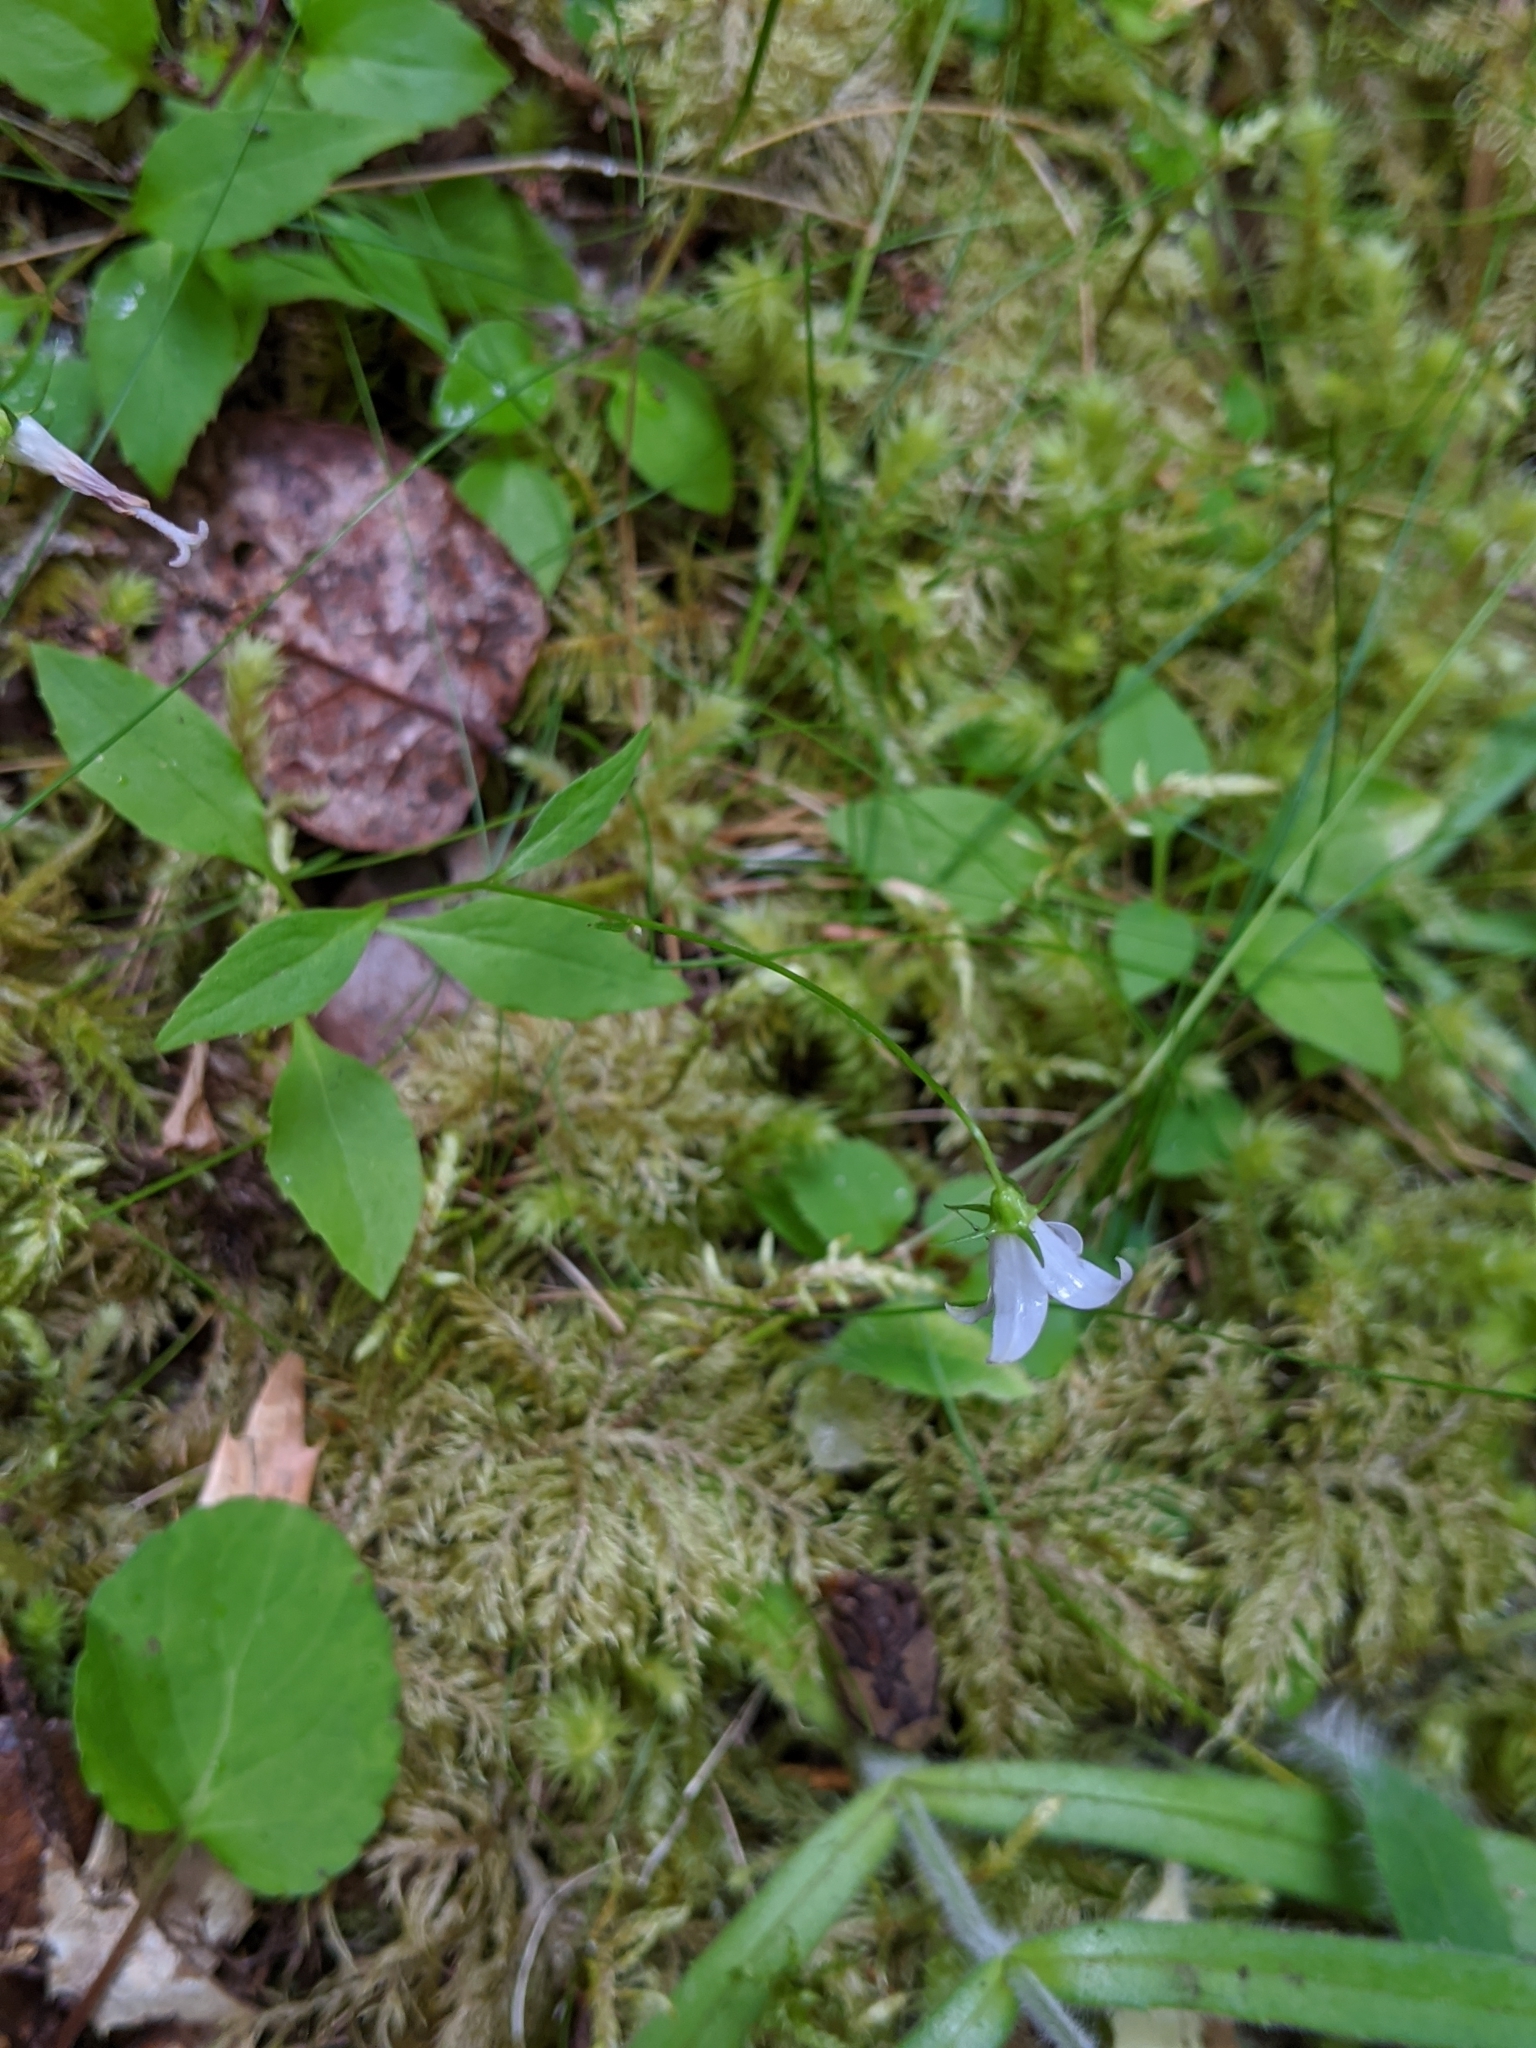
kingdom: Plantae
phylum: Tracheophyta
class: Magnoliopsida
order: Asterales
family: Campanulaceae
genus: Campanula
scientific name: Campanula scouleri
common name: Scouler's harebell
